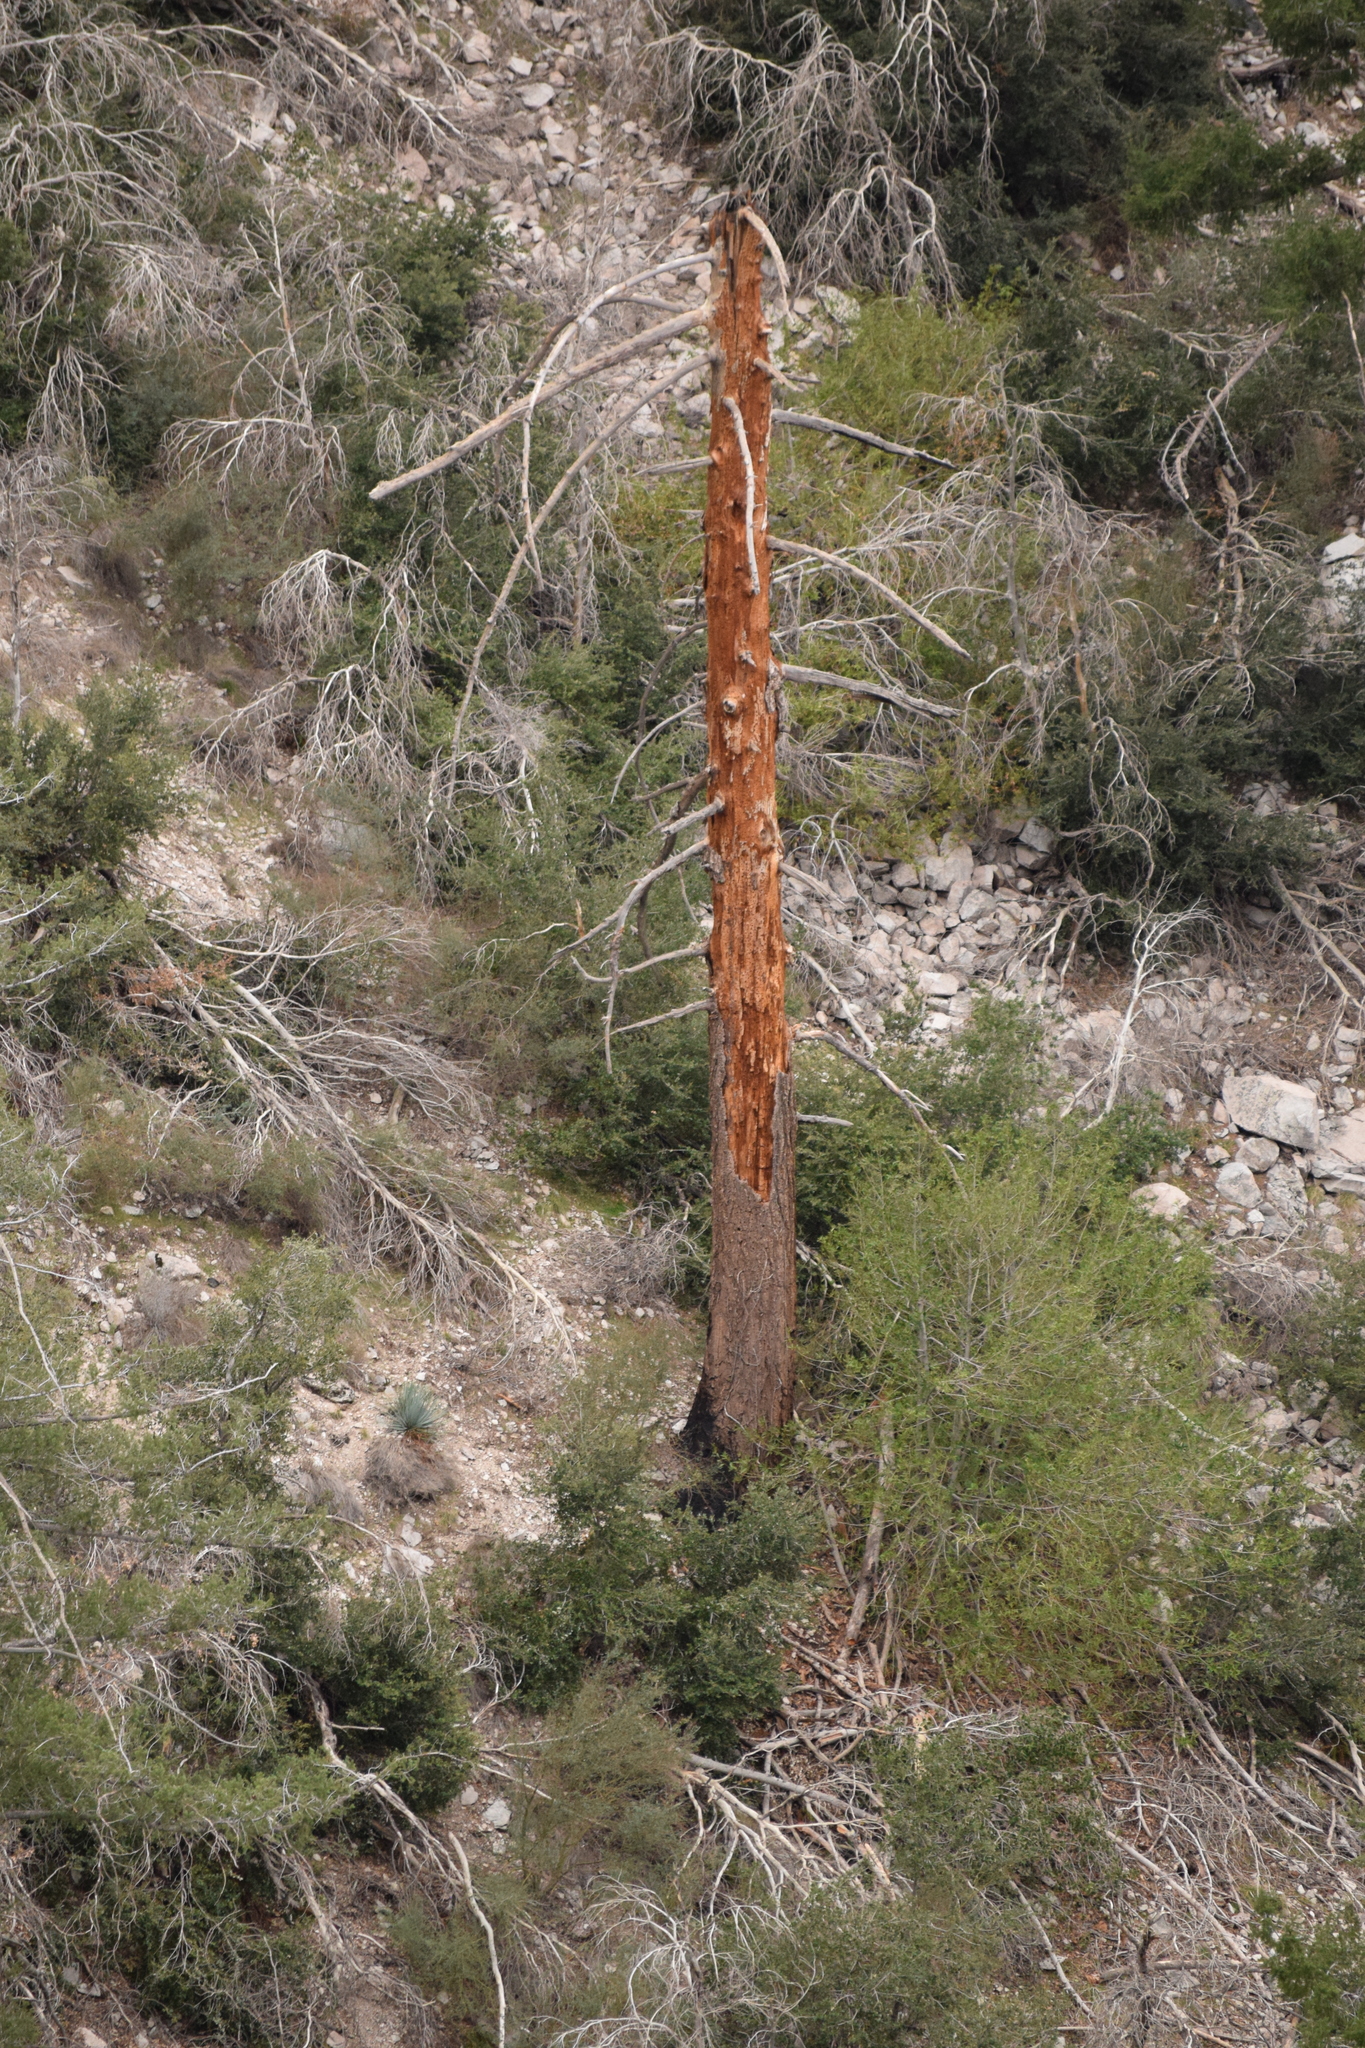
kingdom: Plantae
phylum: Tracheophyta
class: Pinopsida
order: Pinales
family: Pinaceae
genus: Pseudotsuga
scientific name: Pseudotsuga macrocarpa
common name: Big-cone douglas-fir
